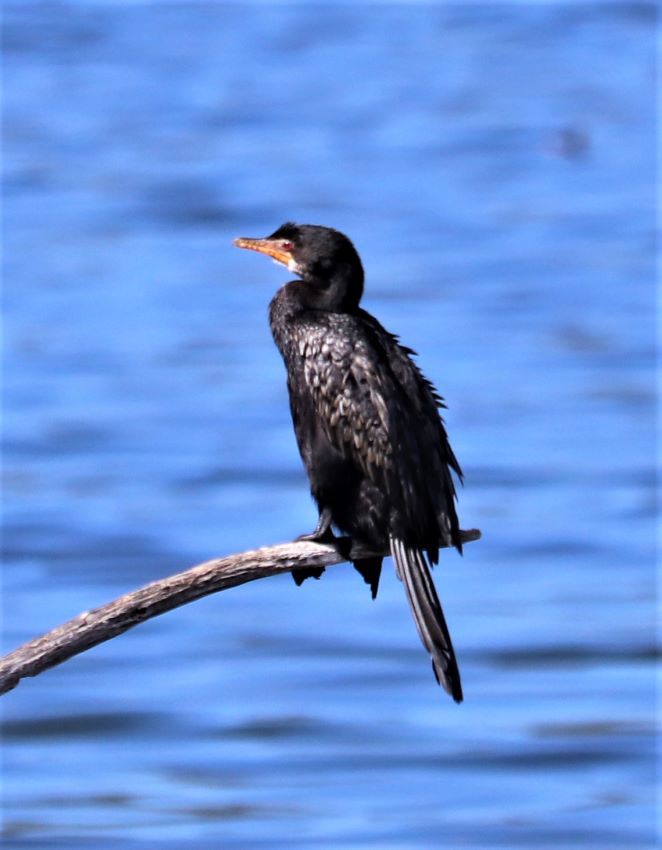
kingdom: Animalia
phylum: Chordata
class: Aves
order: Suliformes
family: Phalacrocoracidae
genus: Microcarbo
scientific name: Microcarbo africanus
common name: Long-tailed cormorant
